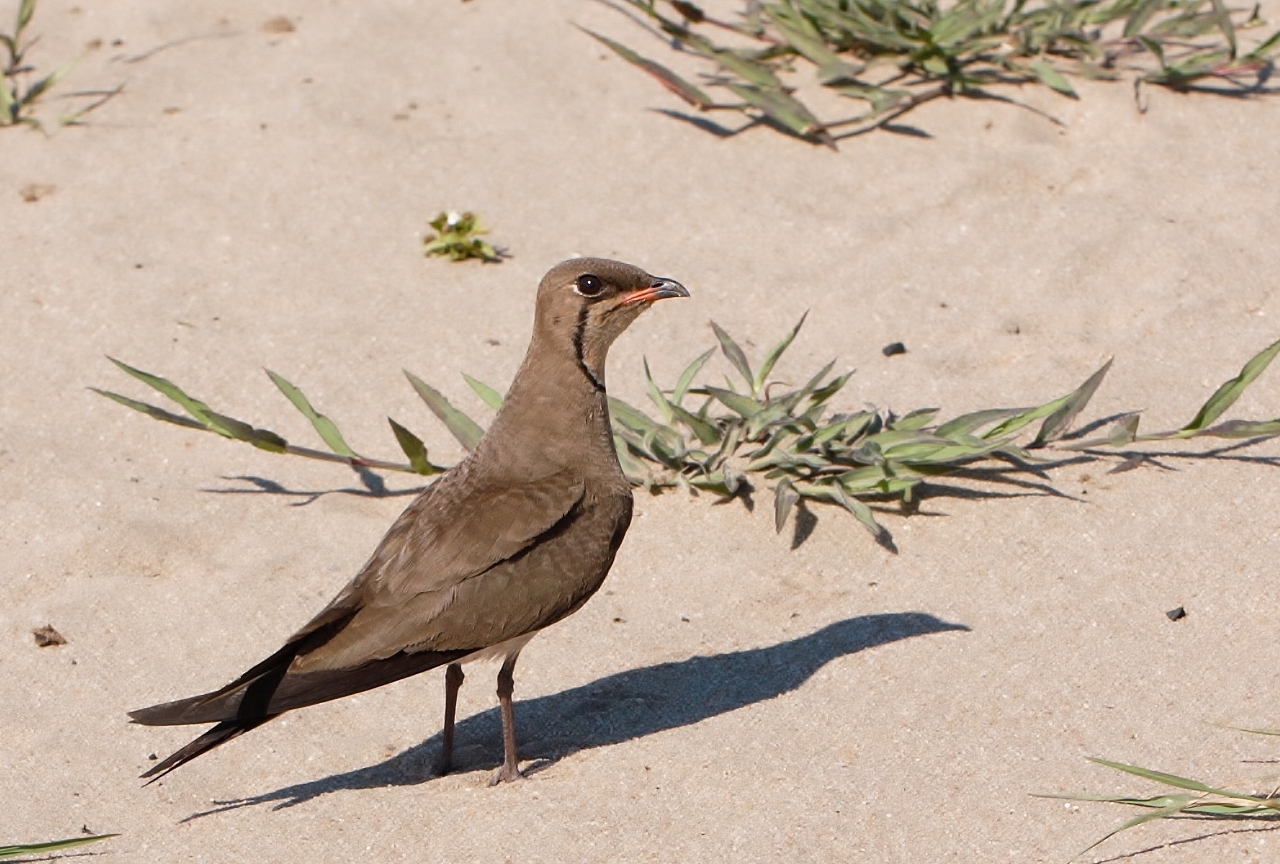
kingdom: Animalia
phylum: Chordata
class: Aves
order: Charadriiformes
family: Glareolidae
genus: Glareola
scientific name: Glareola pratincola
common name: Collared pratincole
